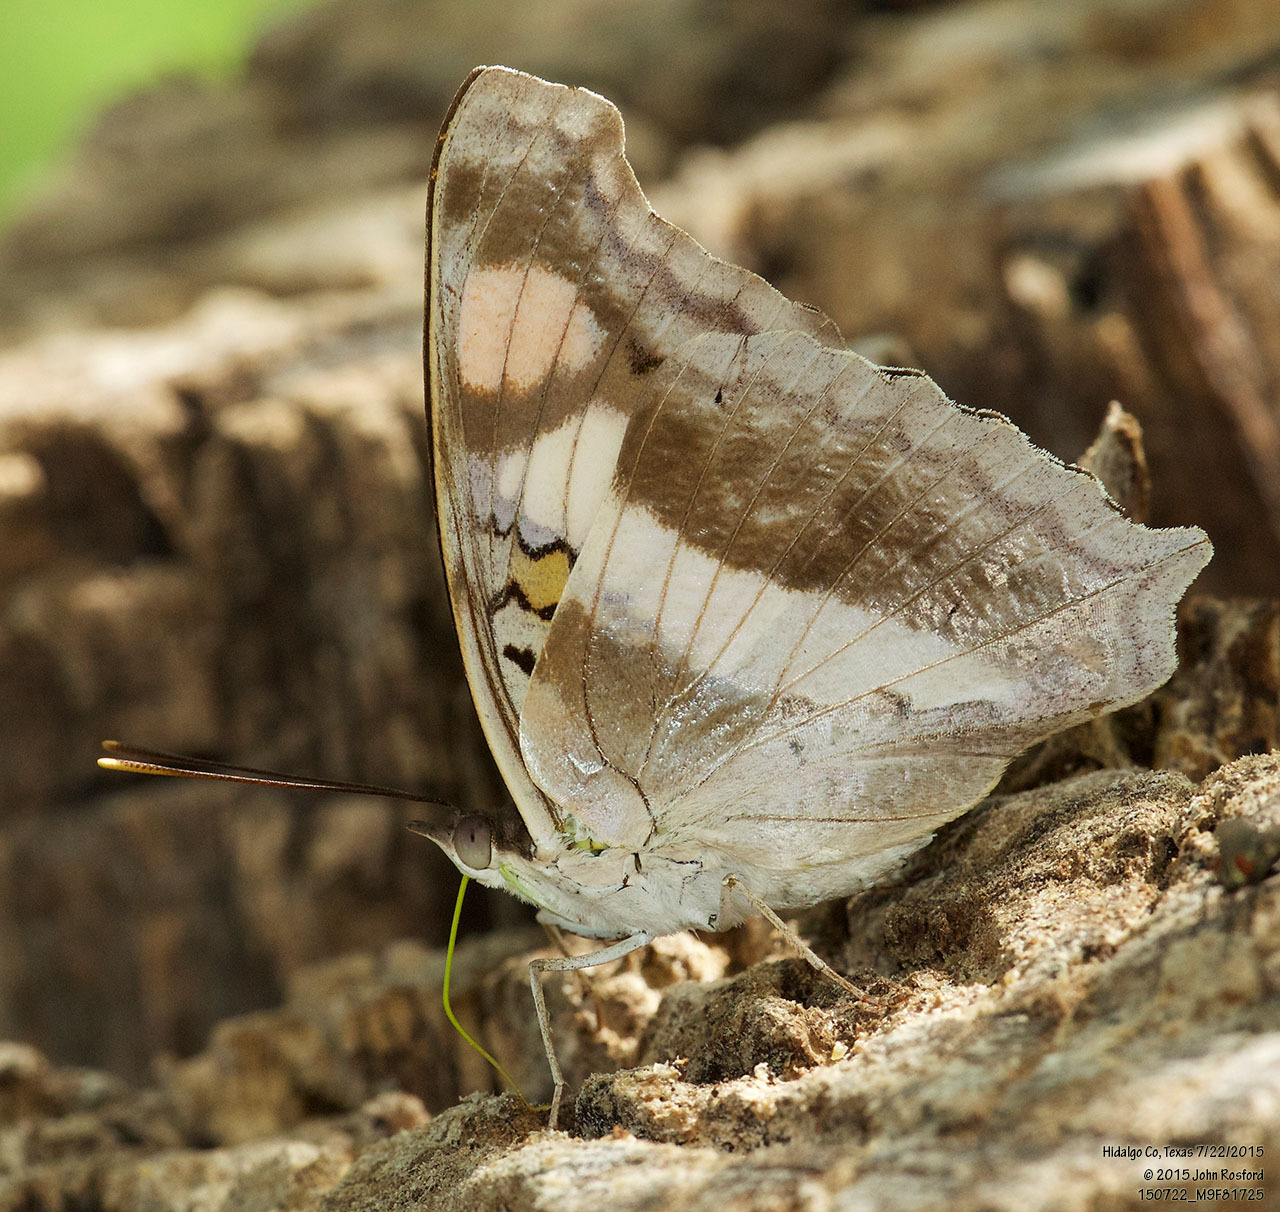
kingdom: Animalia
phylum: Arthropoda
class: Insecta
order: Lepidoptera
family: Nymphalidae
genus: Doxocopa
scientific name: Doxocopa laure
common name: Silver emperor
